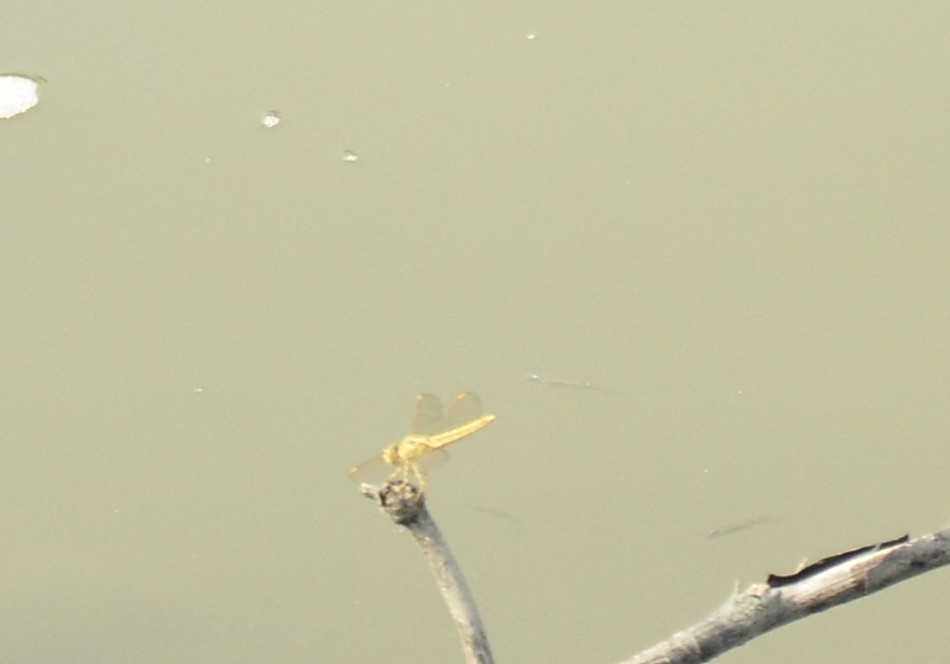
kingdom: Animalia
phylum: Arthropoda
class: Insecta
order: Odonata
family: Libellulidae
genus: Brachythemis
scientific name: Brachythemis contaminata
